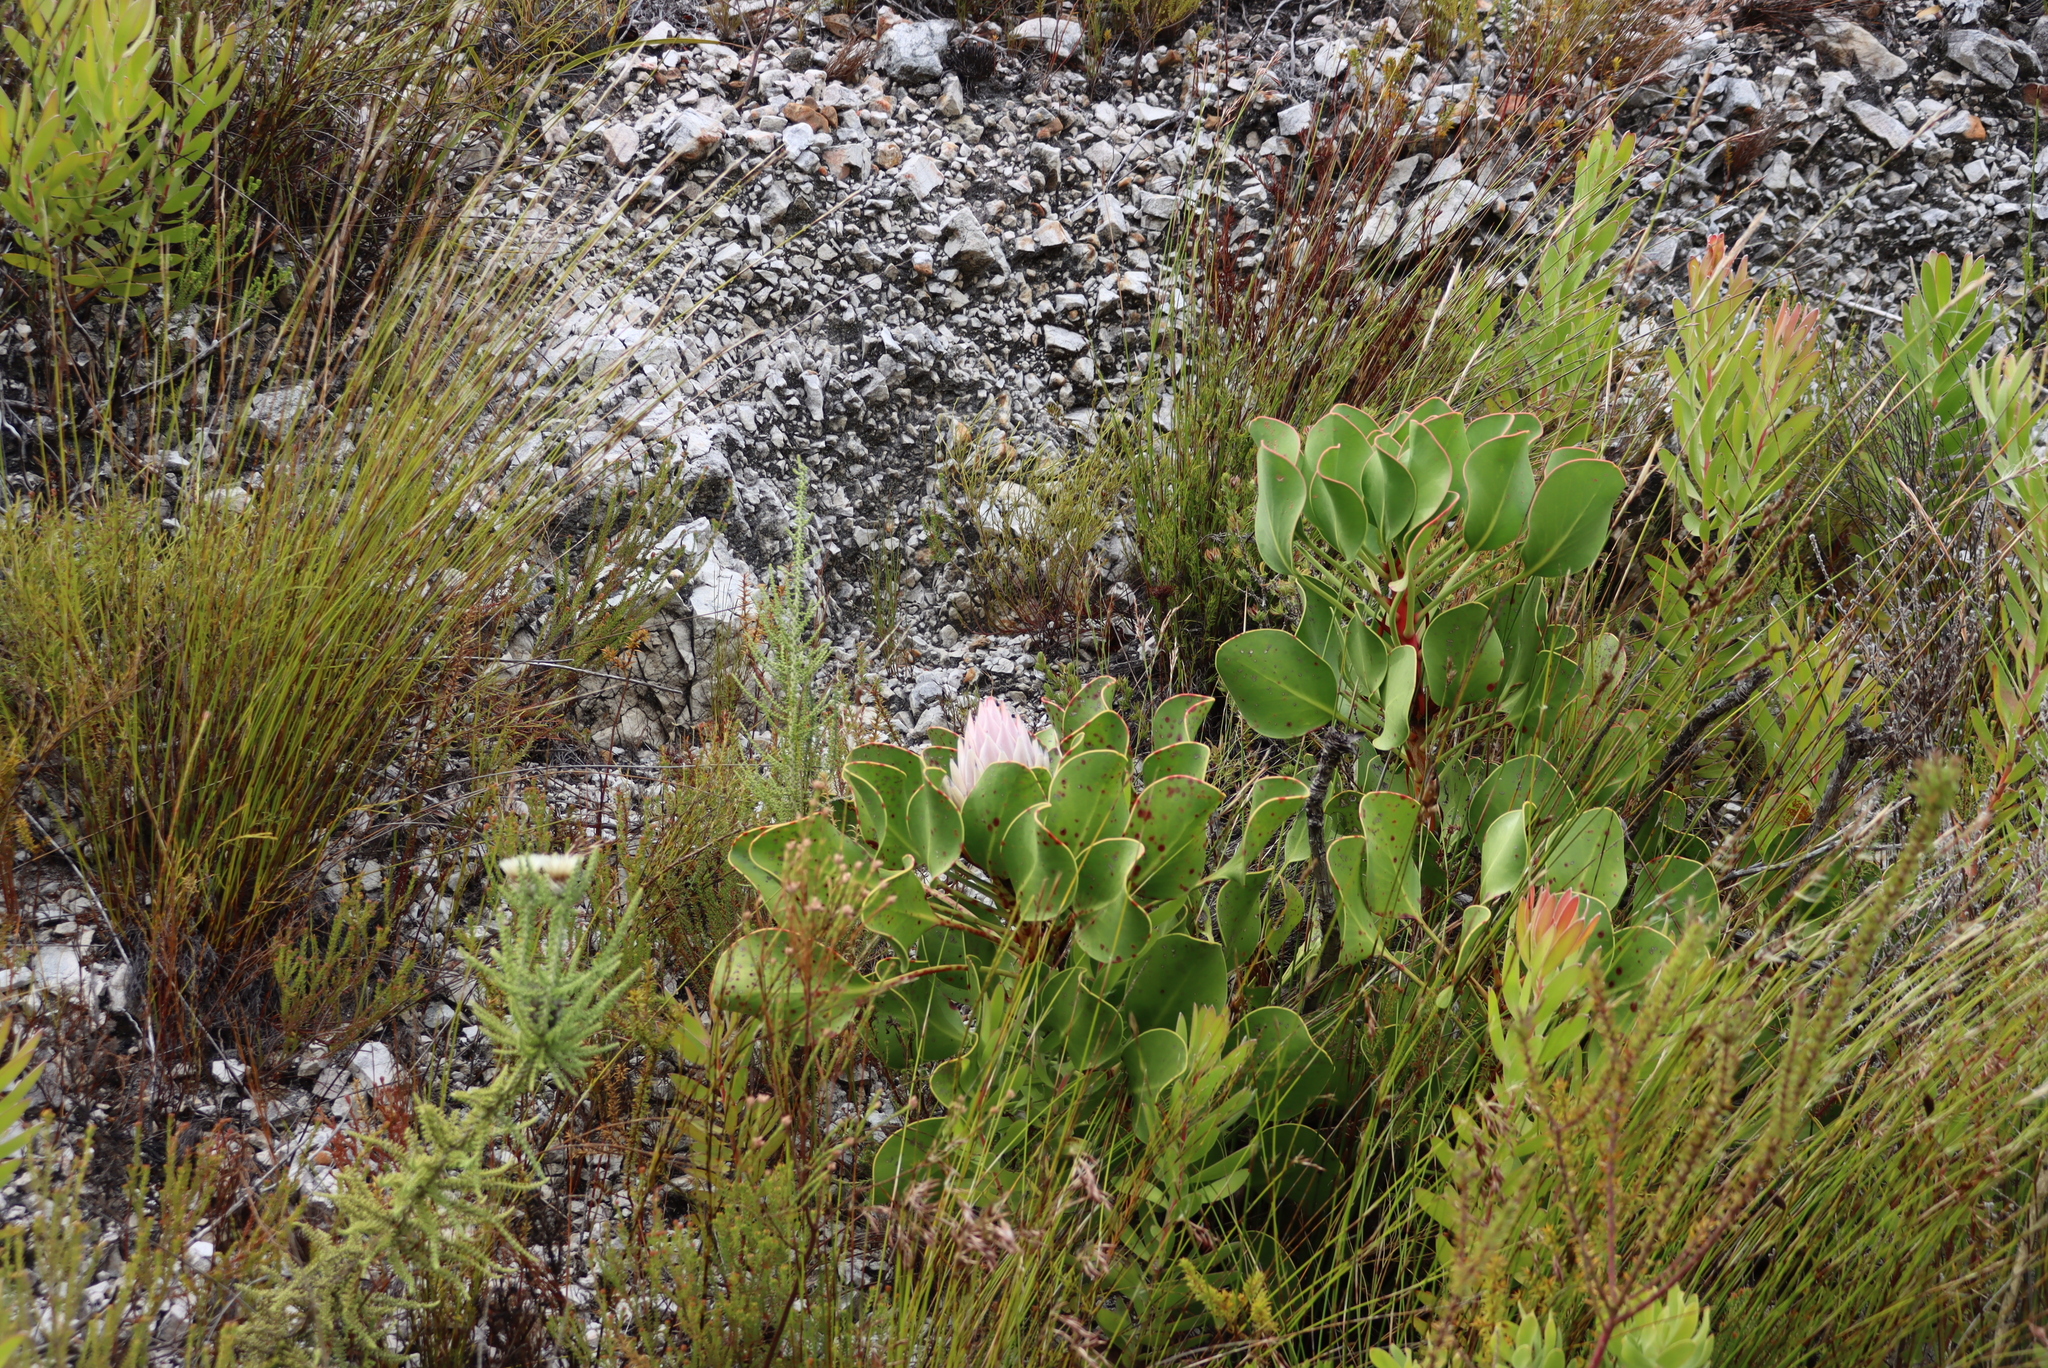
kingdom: Plantae
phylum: Tracheophyta
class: Magnoliopsida
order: Proteales
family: Proteaceae
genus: Protea
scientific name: Protea cynaroides
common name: King protea
